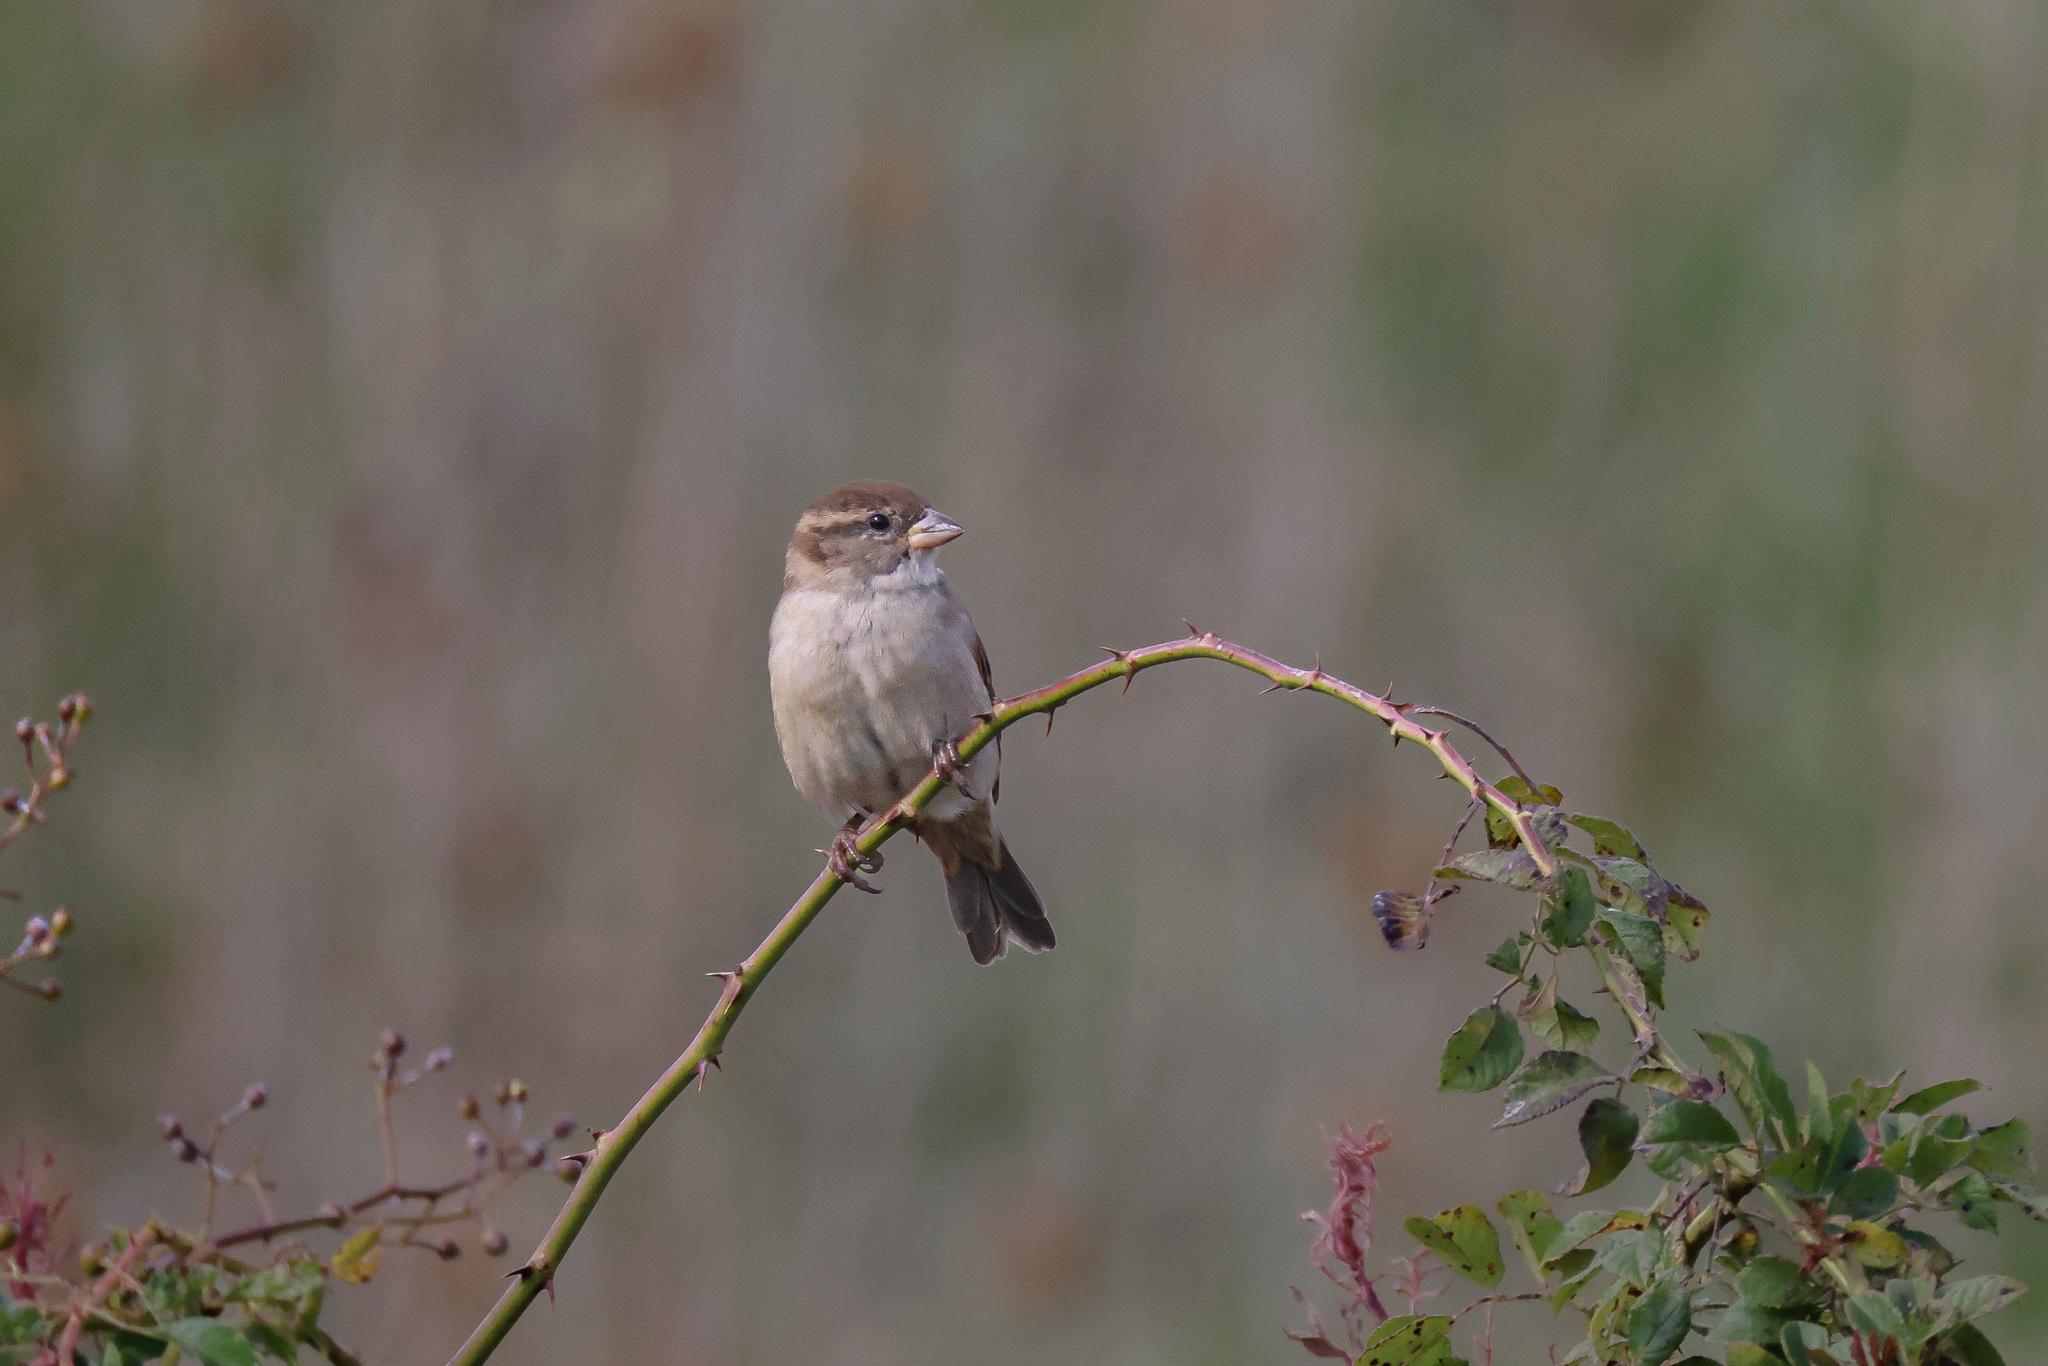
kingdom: Animalia
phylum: Chordata
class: Aves
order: Passeriformes
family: Passeridae
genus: Passer
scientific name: Passer domesticus
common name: House sparrow
